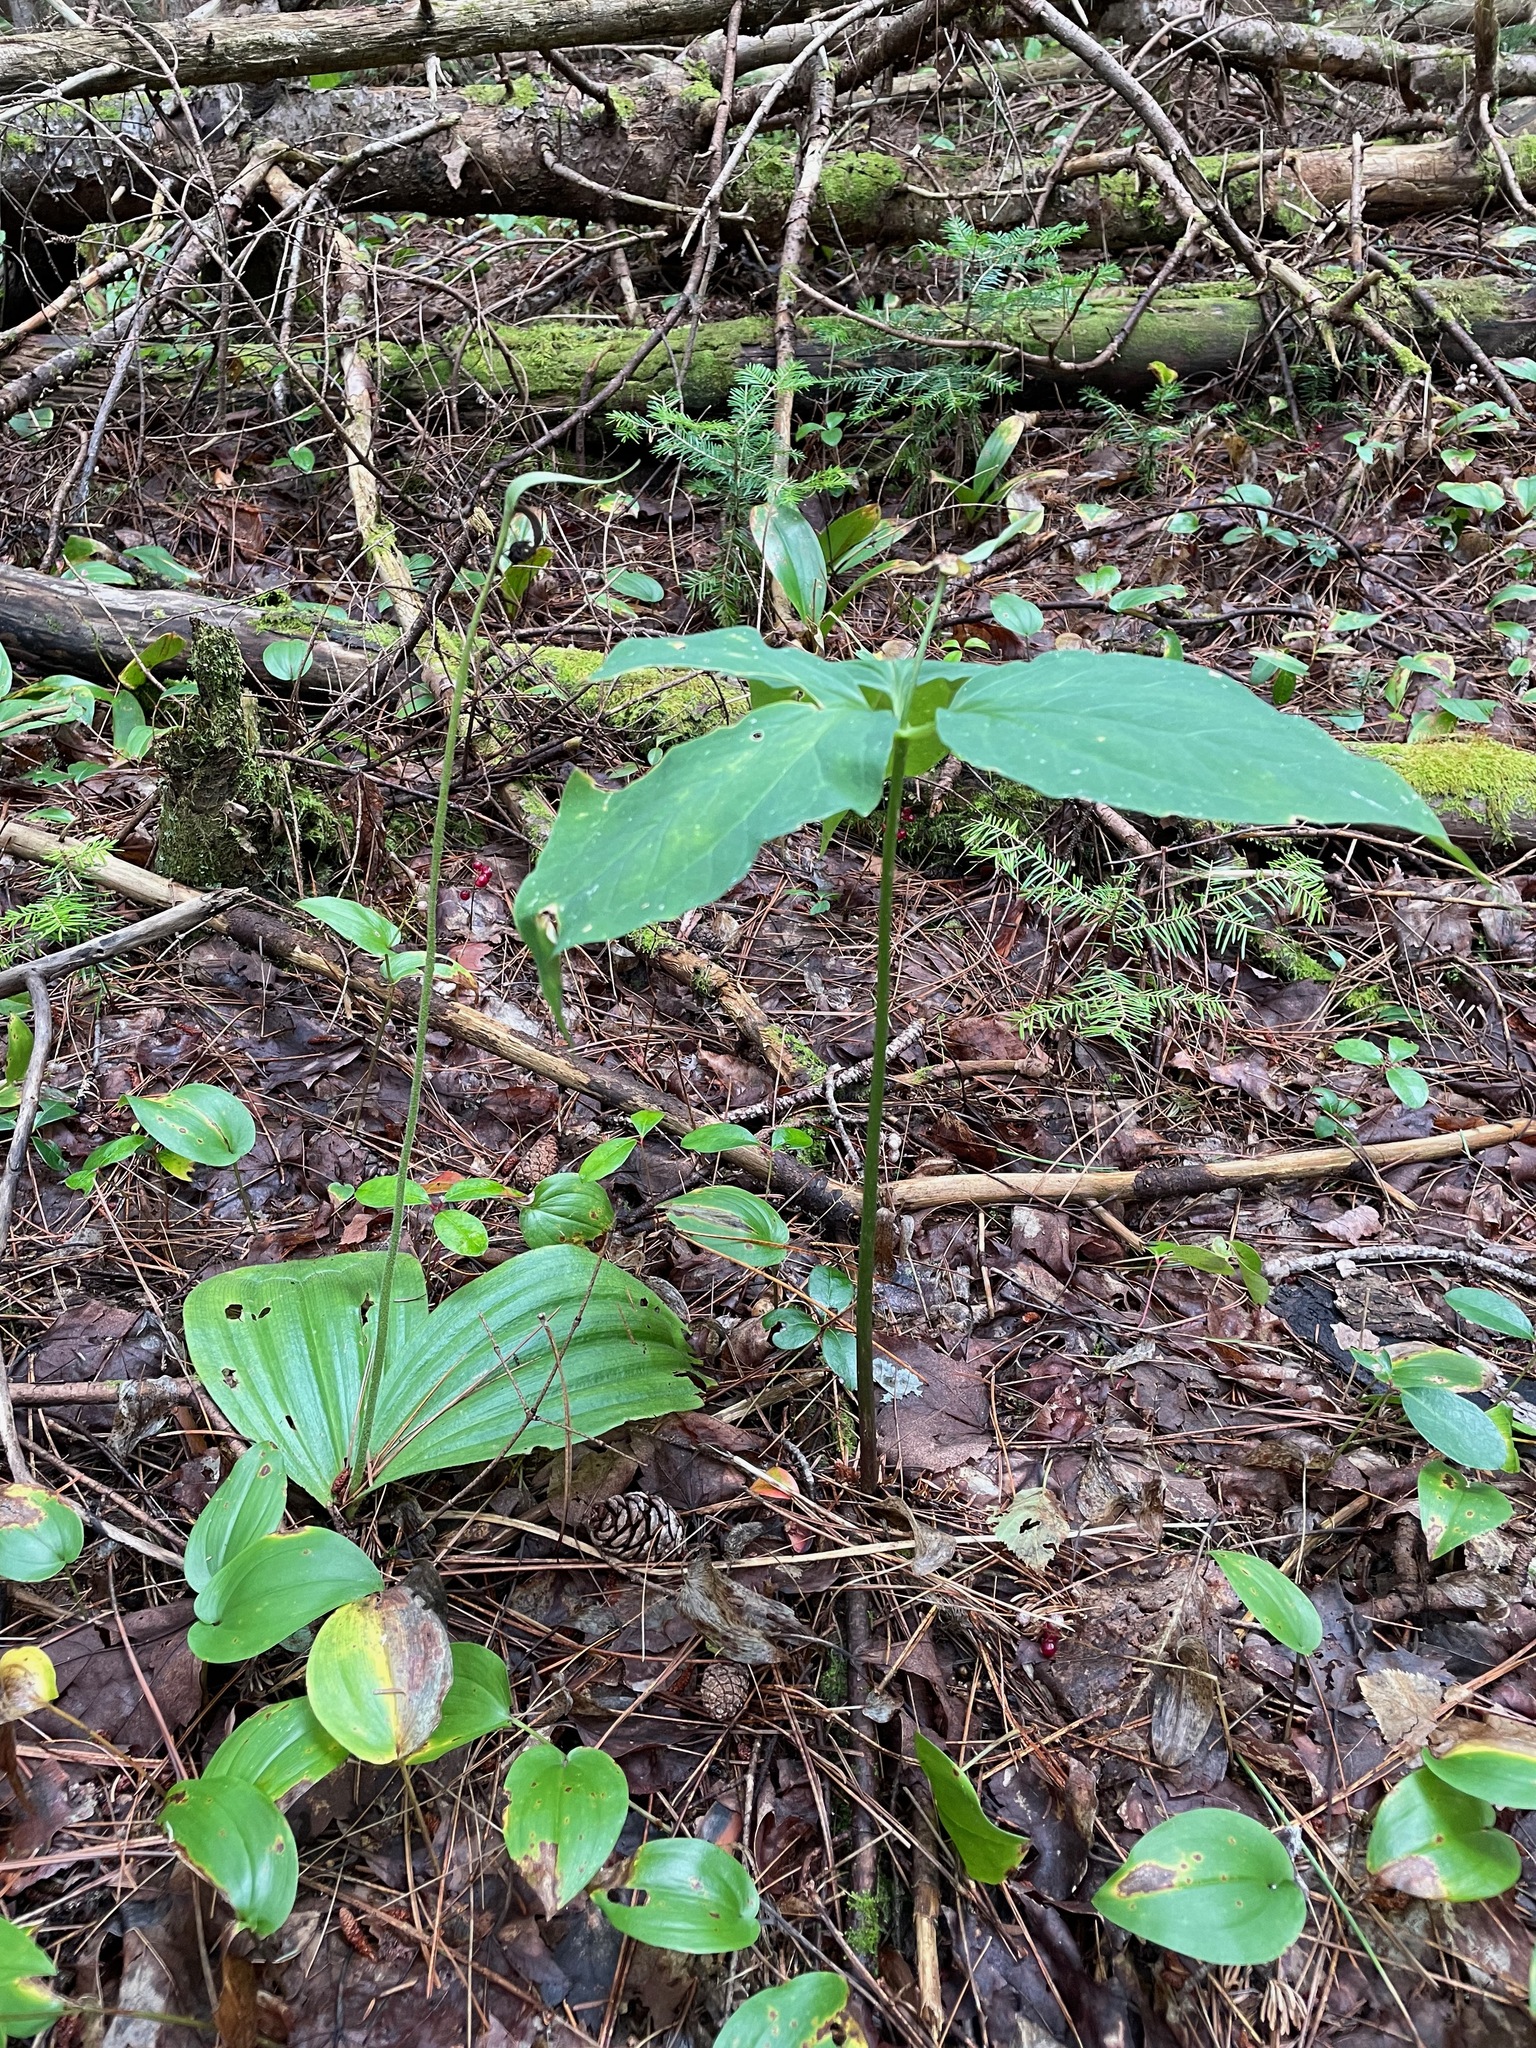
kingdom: Plantae
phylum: Tracheophyta
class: Liliopsida
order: Asparagales
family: Orchidaceae
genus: Cypripedium
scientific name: Cypripedium acaule
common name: Pink lady's-slipper
